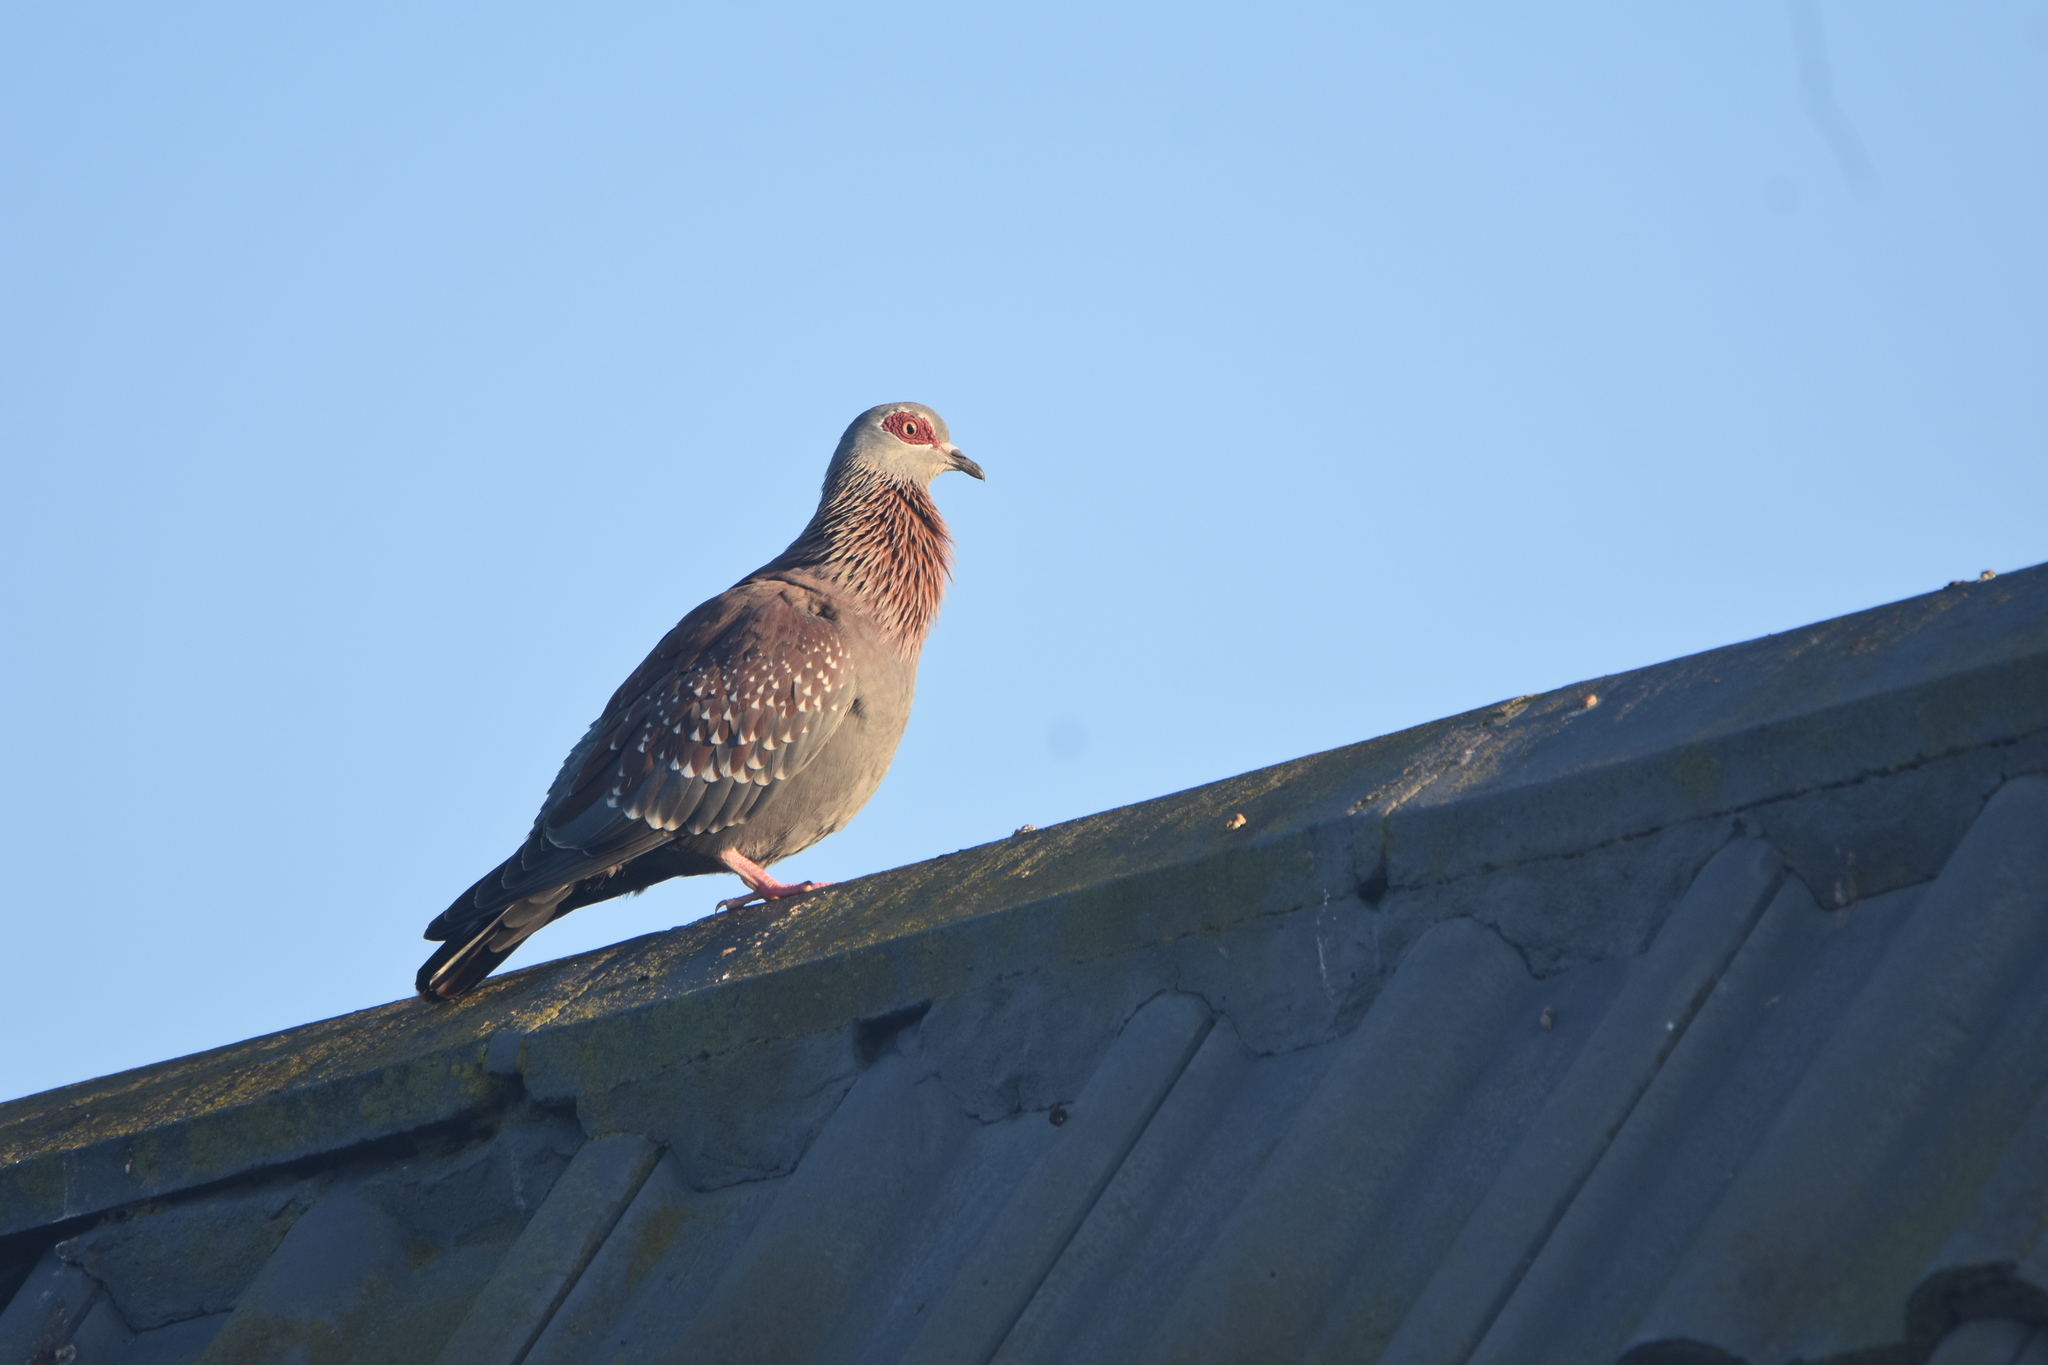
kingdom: Animalia
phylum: Chordata
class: Aves
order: Columbiformes
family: Columbidae
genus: Columba
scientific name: Columba guinea
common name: Speckled pigeon
